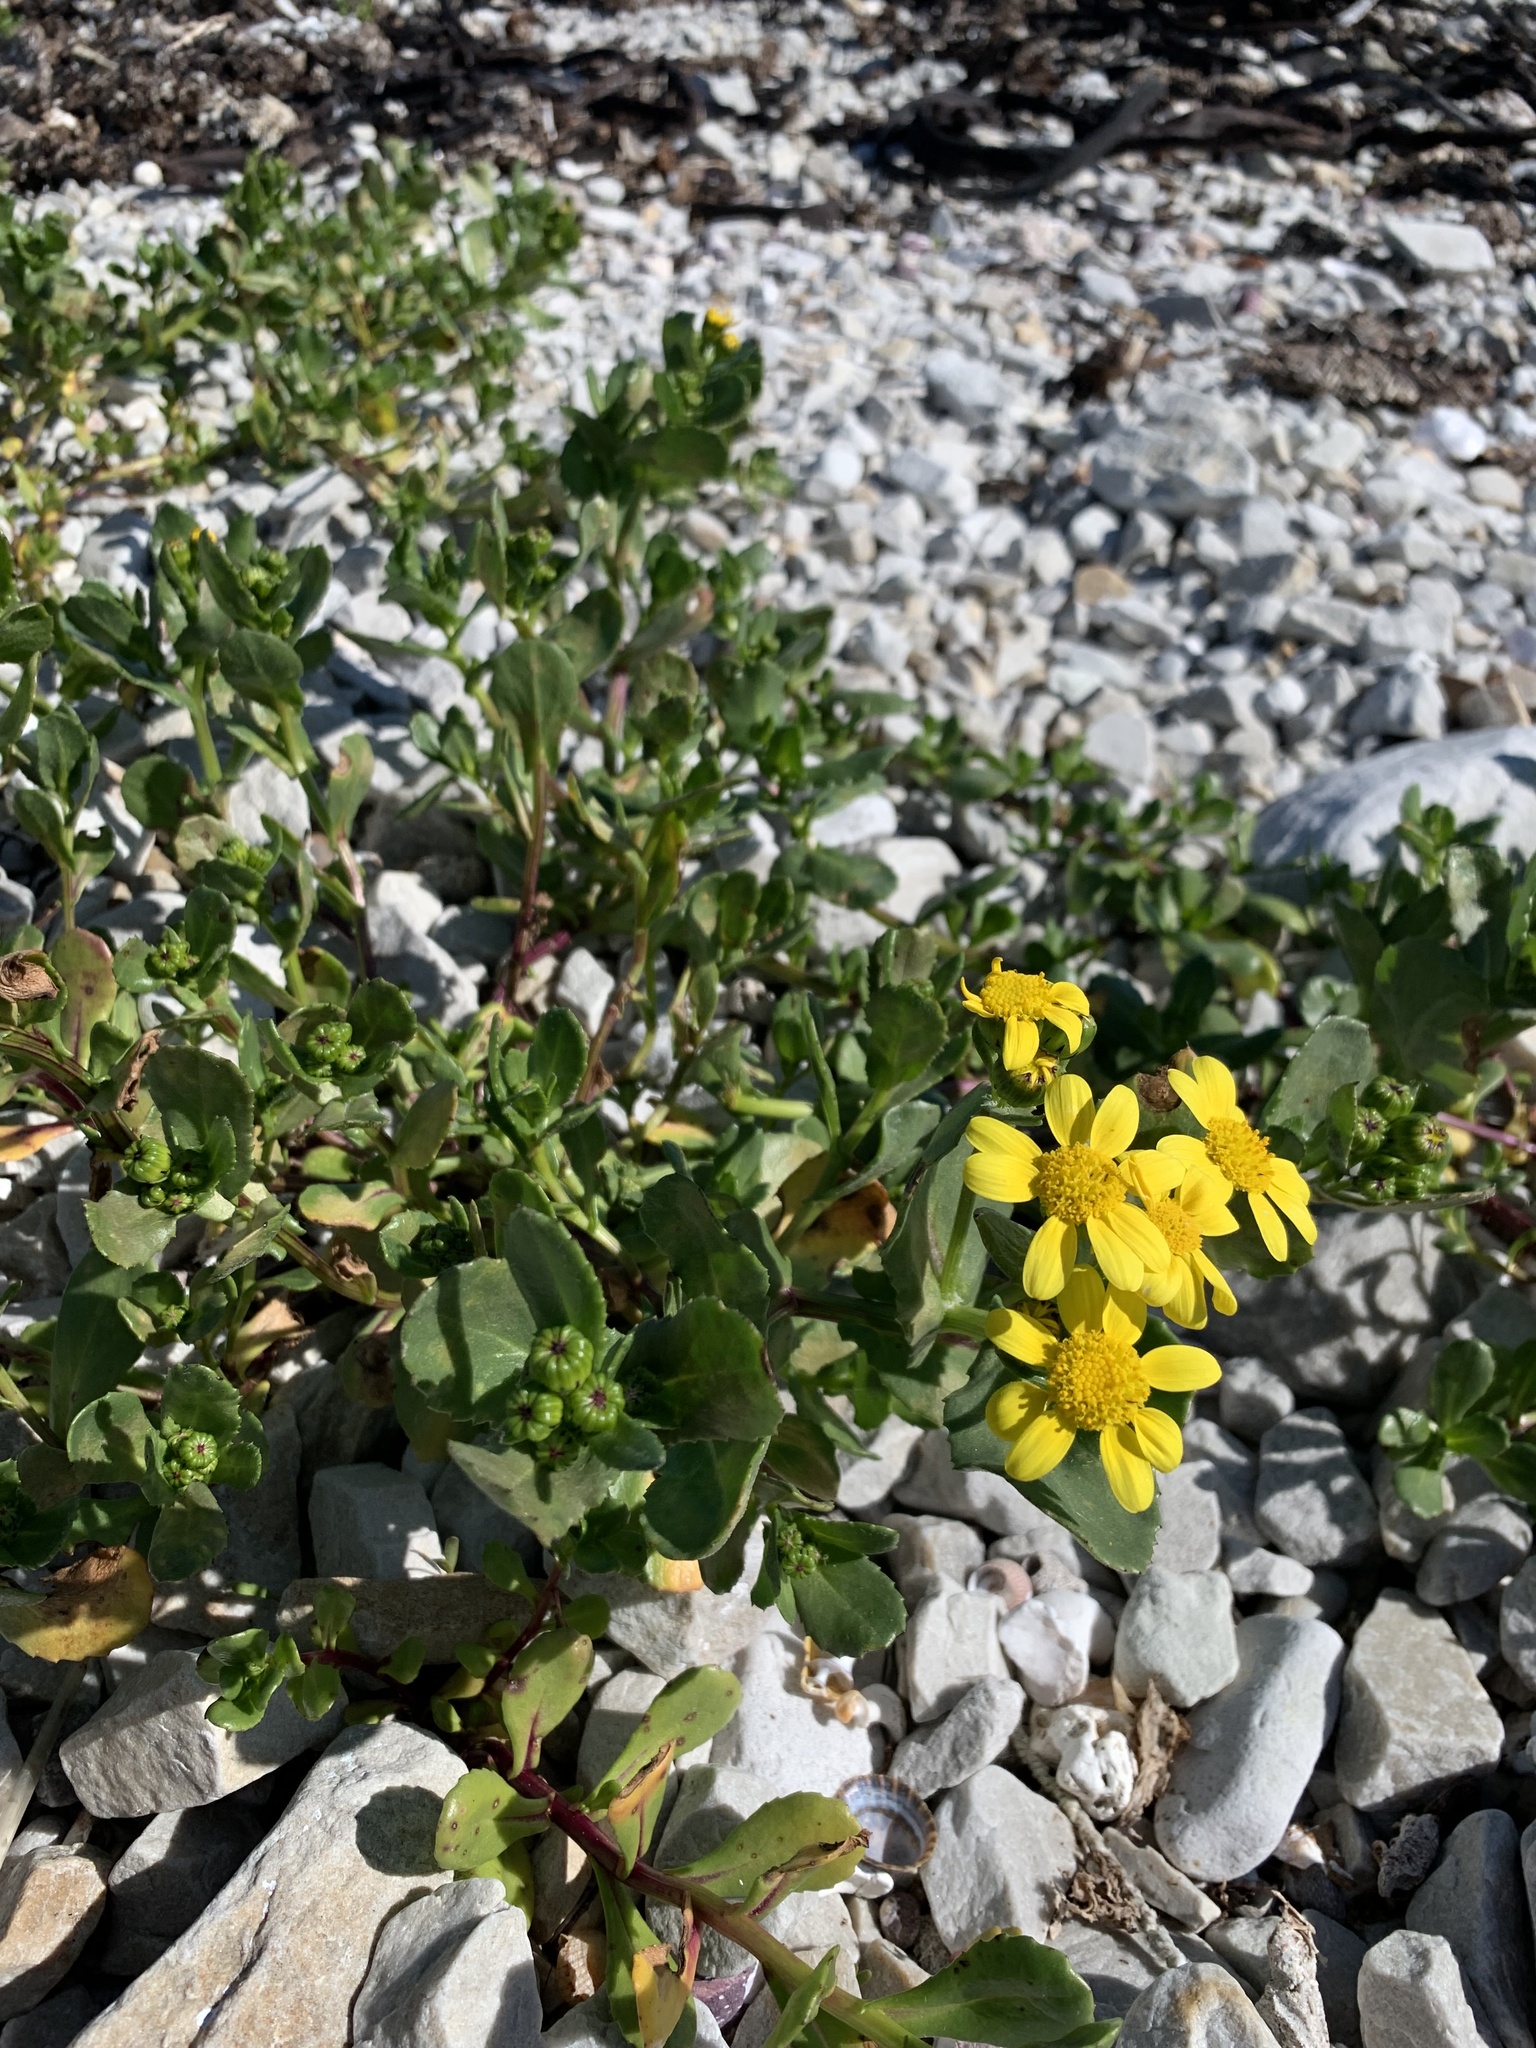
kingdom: Plantae
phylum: Tracheophyta
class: Magnoliopsida
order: Asterales
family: Asteraceae
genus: Senecio
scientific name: Senecio maritimus
